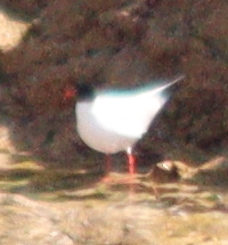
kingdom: Animalia
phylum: Chordata
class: Aves
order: Charadriiformes
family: Laridae
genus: Ichthyaetus
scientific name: Ichthyaetus melanocephalus
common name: Mediterranean gull
